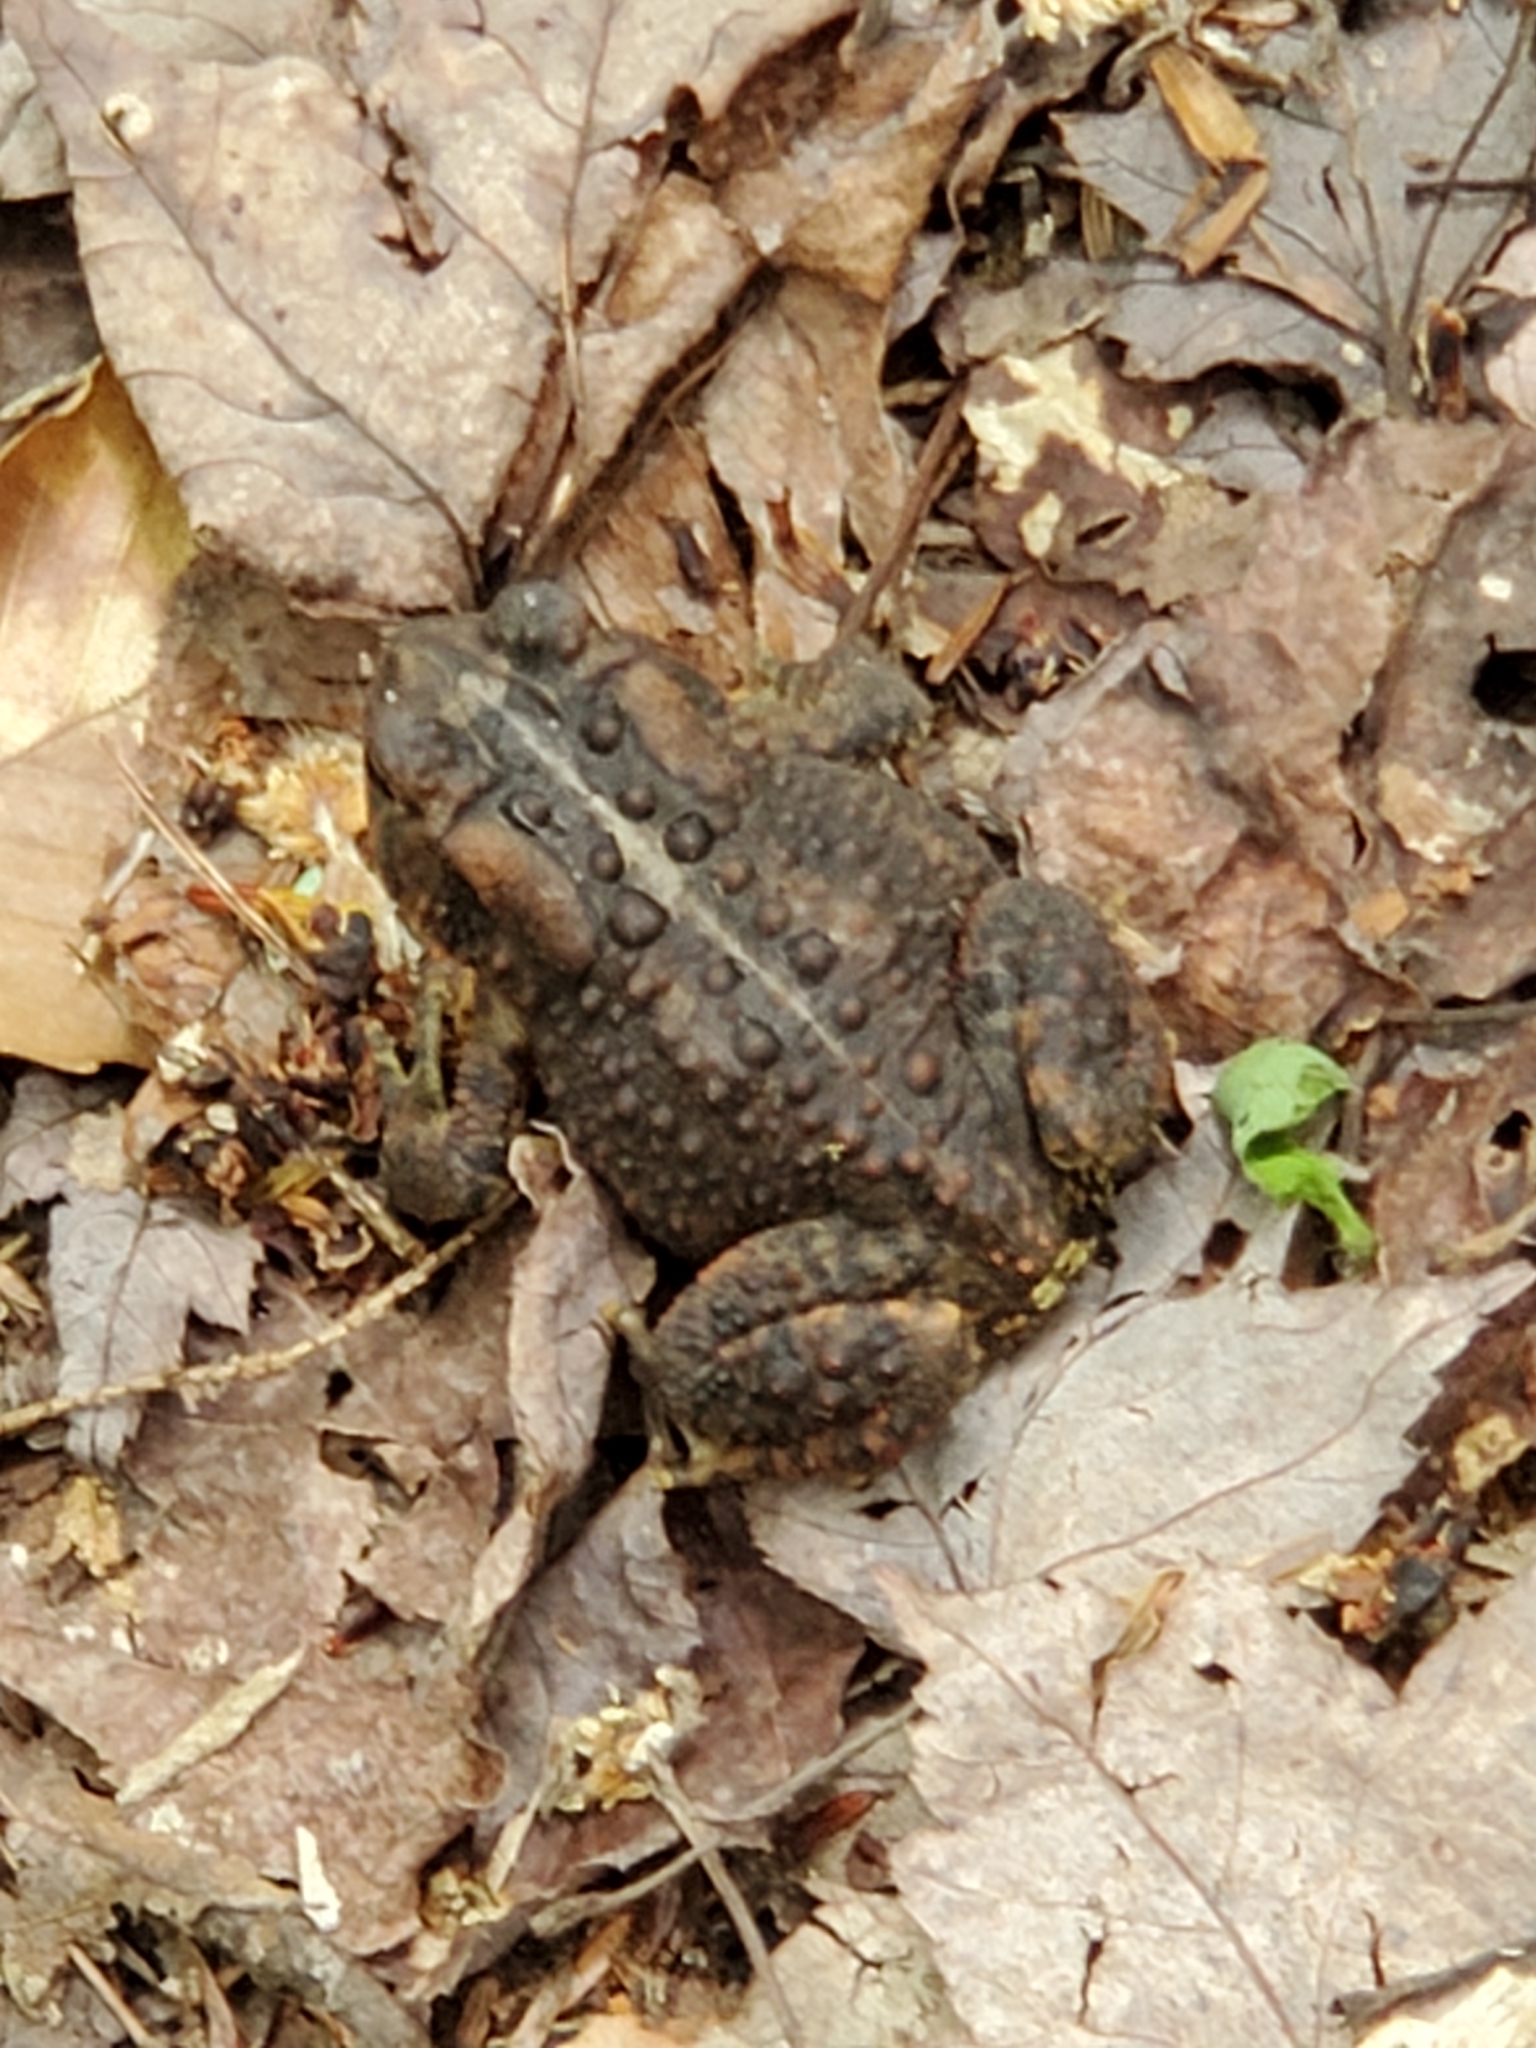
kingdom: Animalia
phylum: Chordata
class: Amphibia
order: Anura
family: Bufonidae
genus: Anaxyrus
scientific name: Anaxyrus americanus
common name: American toad
